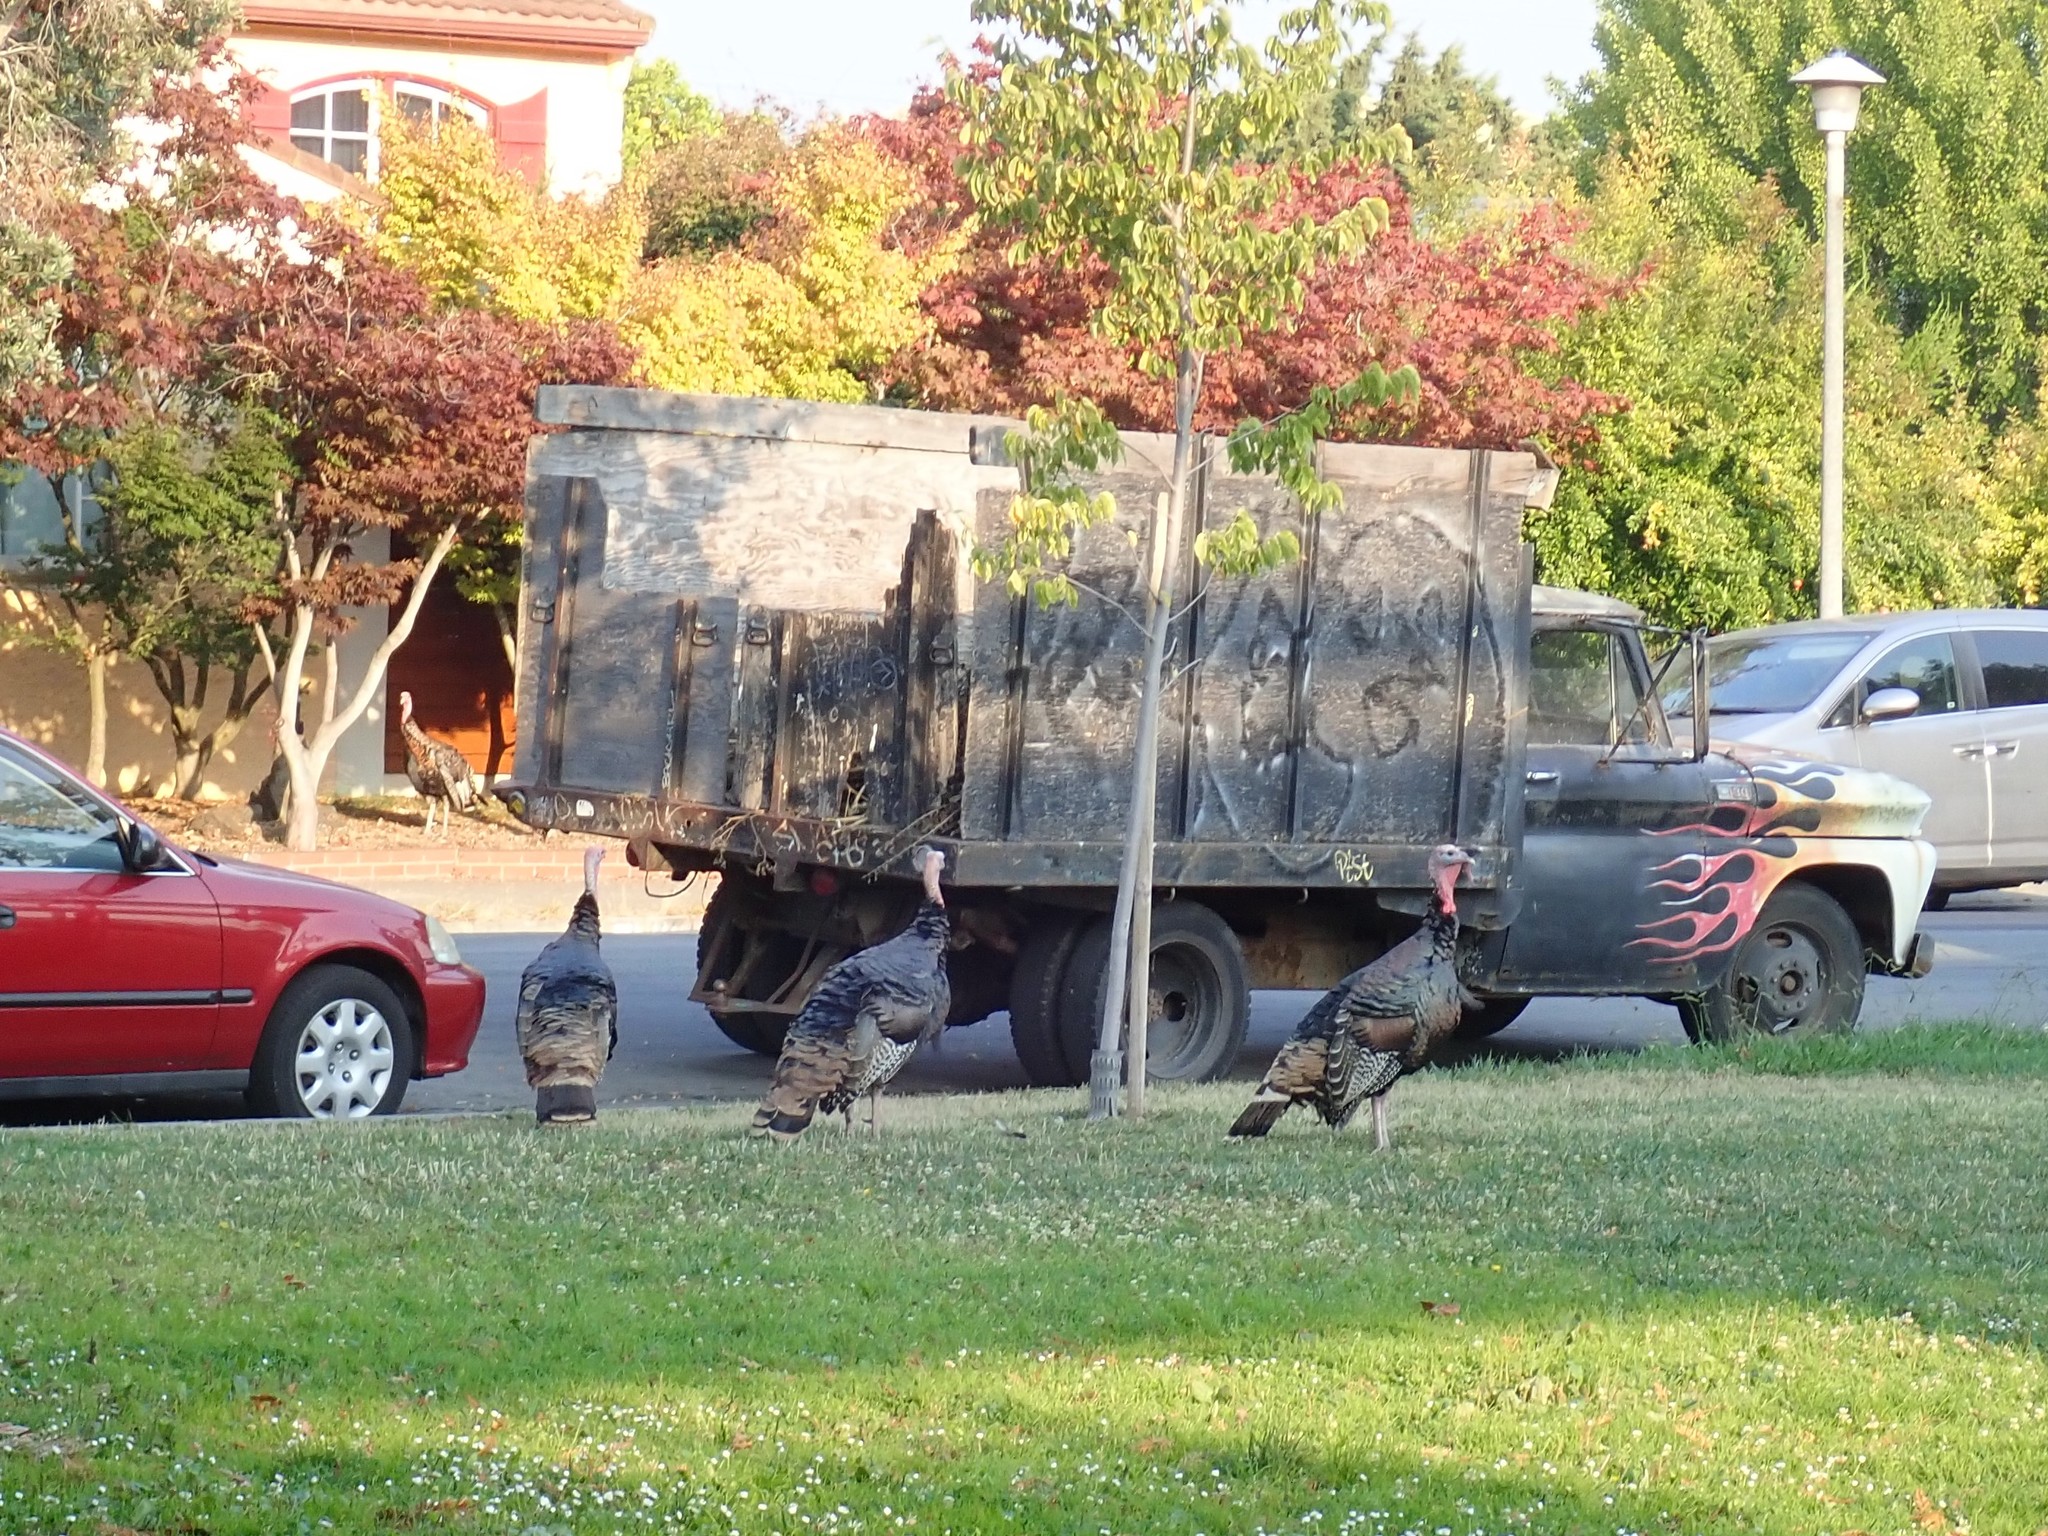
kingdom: Animalia
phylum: Chordata
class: Aves
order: Galliformes
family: Phasianidae
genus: Meleagris
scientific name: Meleagris gallopavo
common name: Wild turkey
